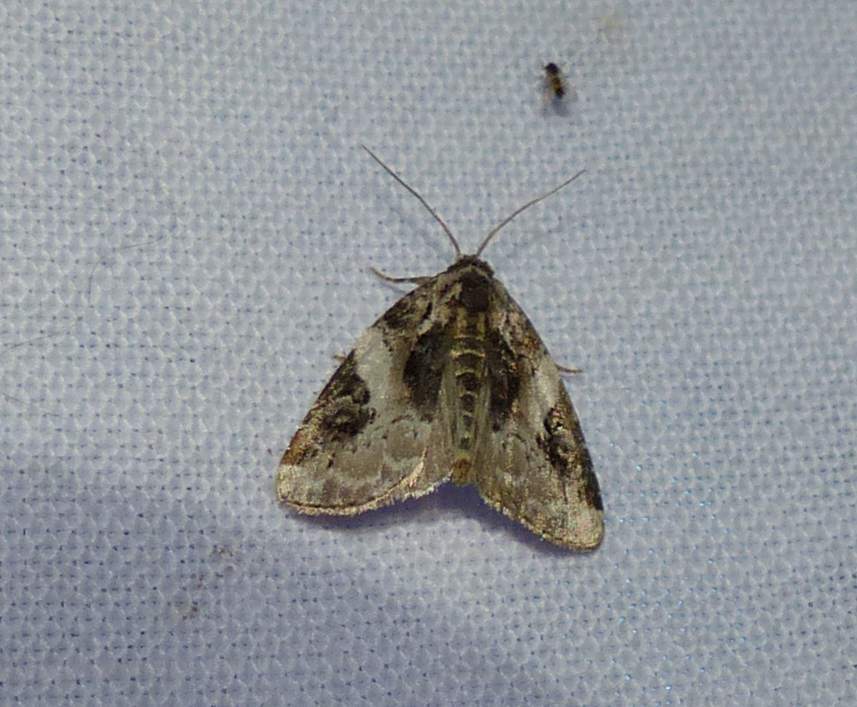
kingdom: Animalia
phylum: Arthropoda
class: Insecta
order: Lepidoptera
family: Noctuidae
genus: Pseudeustrotia
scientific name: Pseudeustrotia carneola
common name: Pink-barred lithacodia moth
